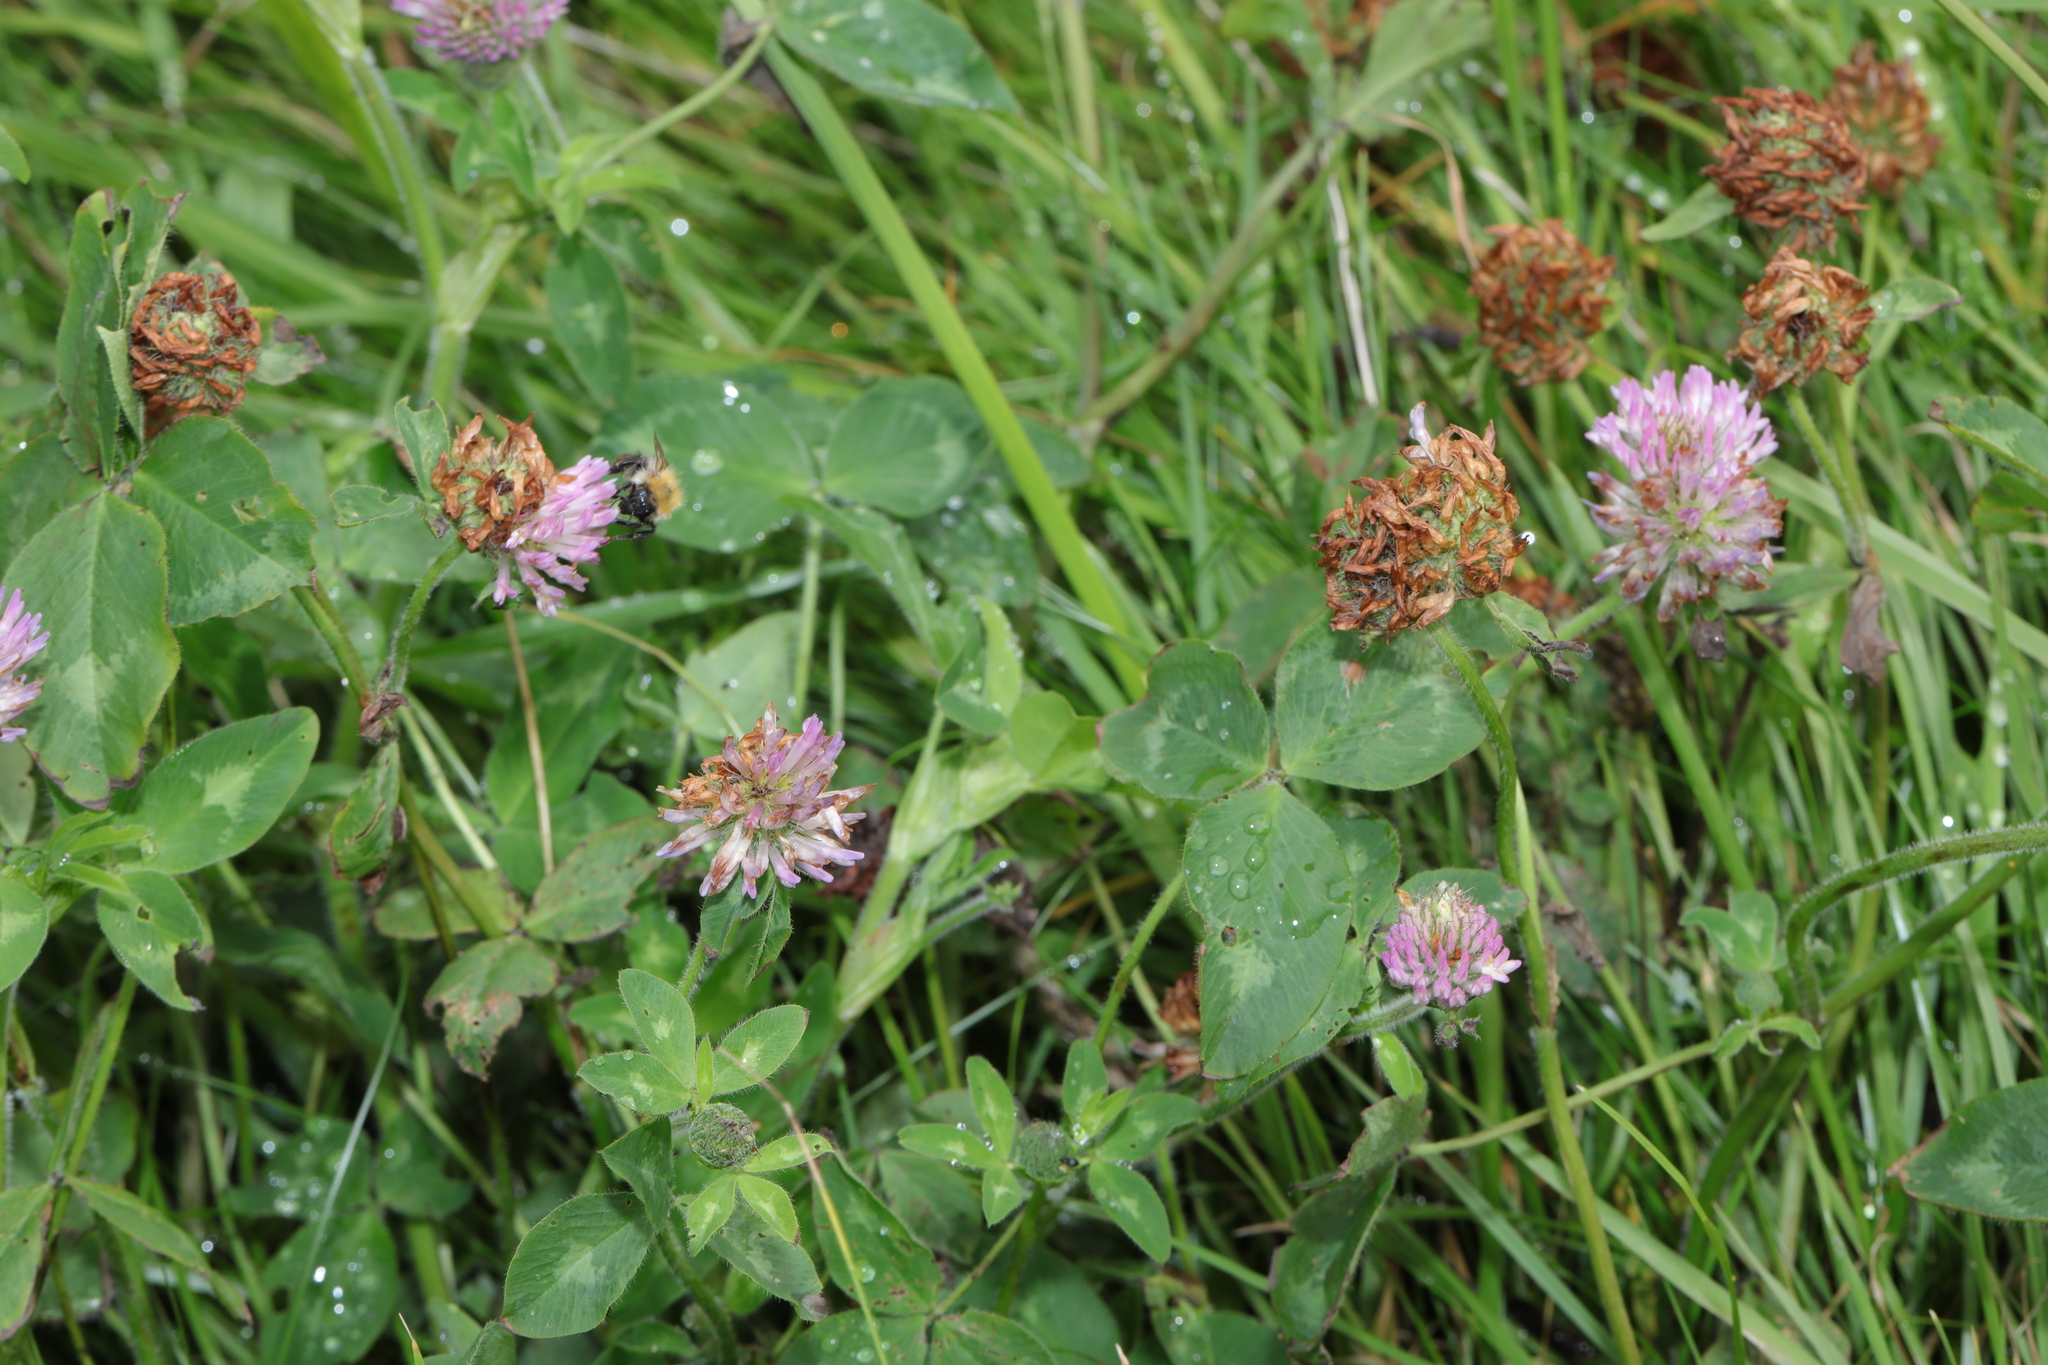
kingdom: Plantae
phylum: Tracheophyta
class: Magnoliopsida
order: Fabales
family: Fabaceae
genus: Trifolium
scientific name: Trifolium pratense
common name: Red clover
